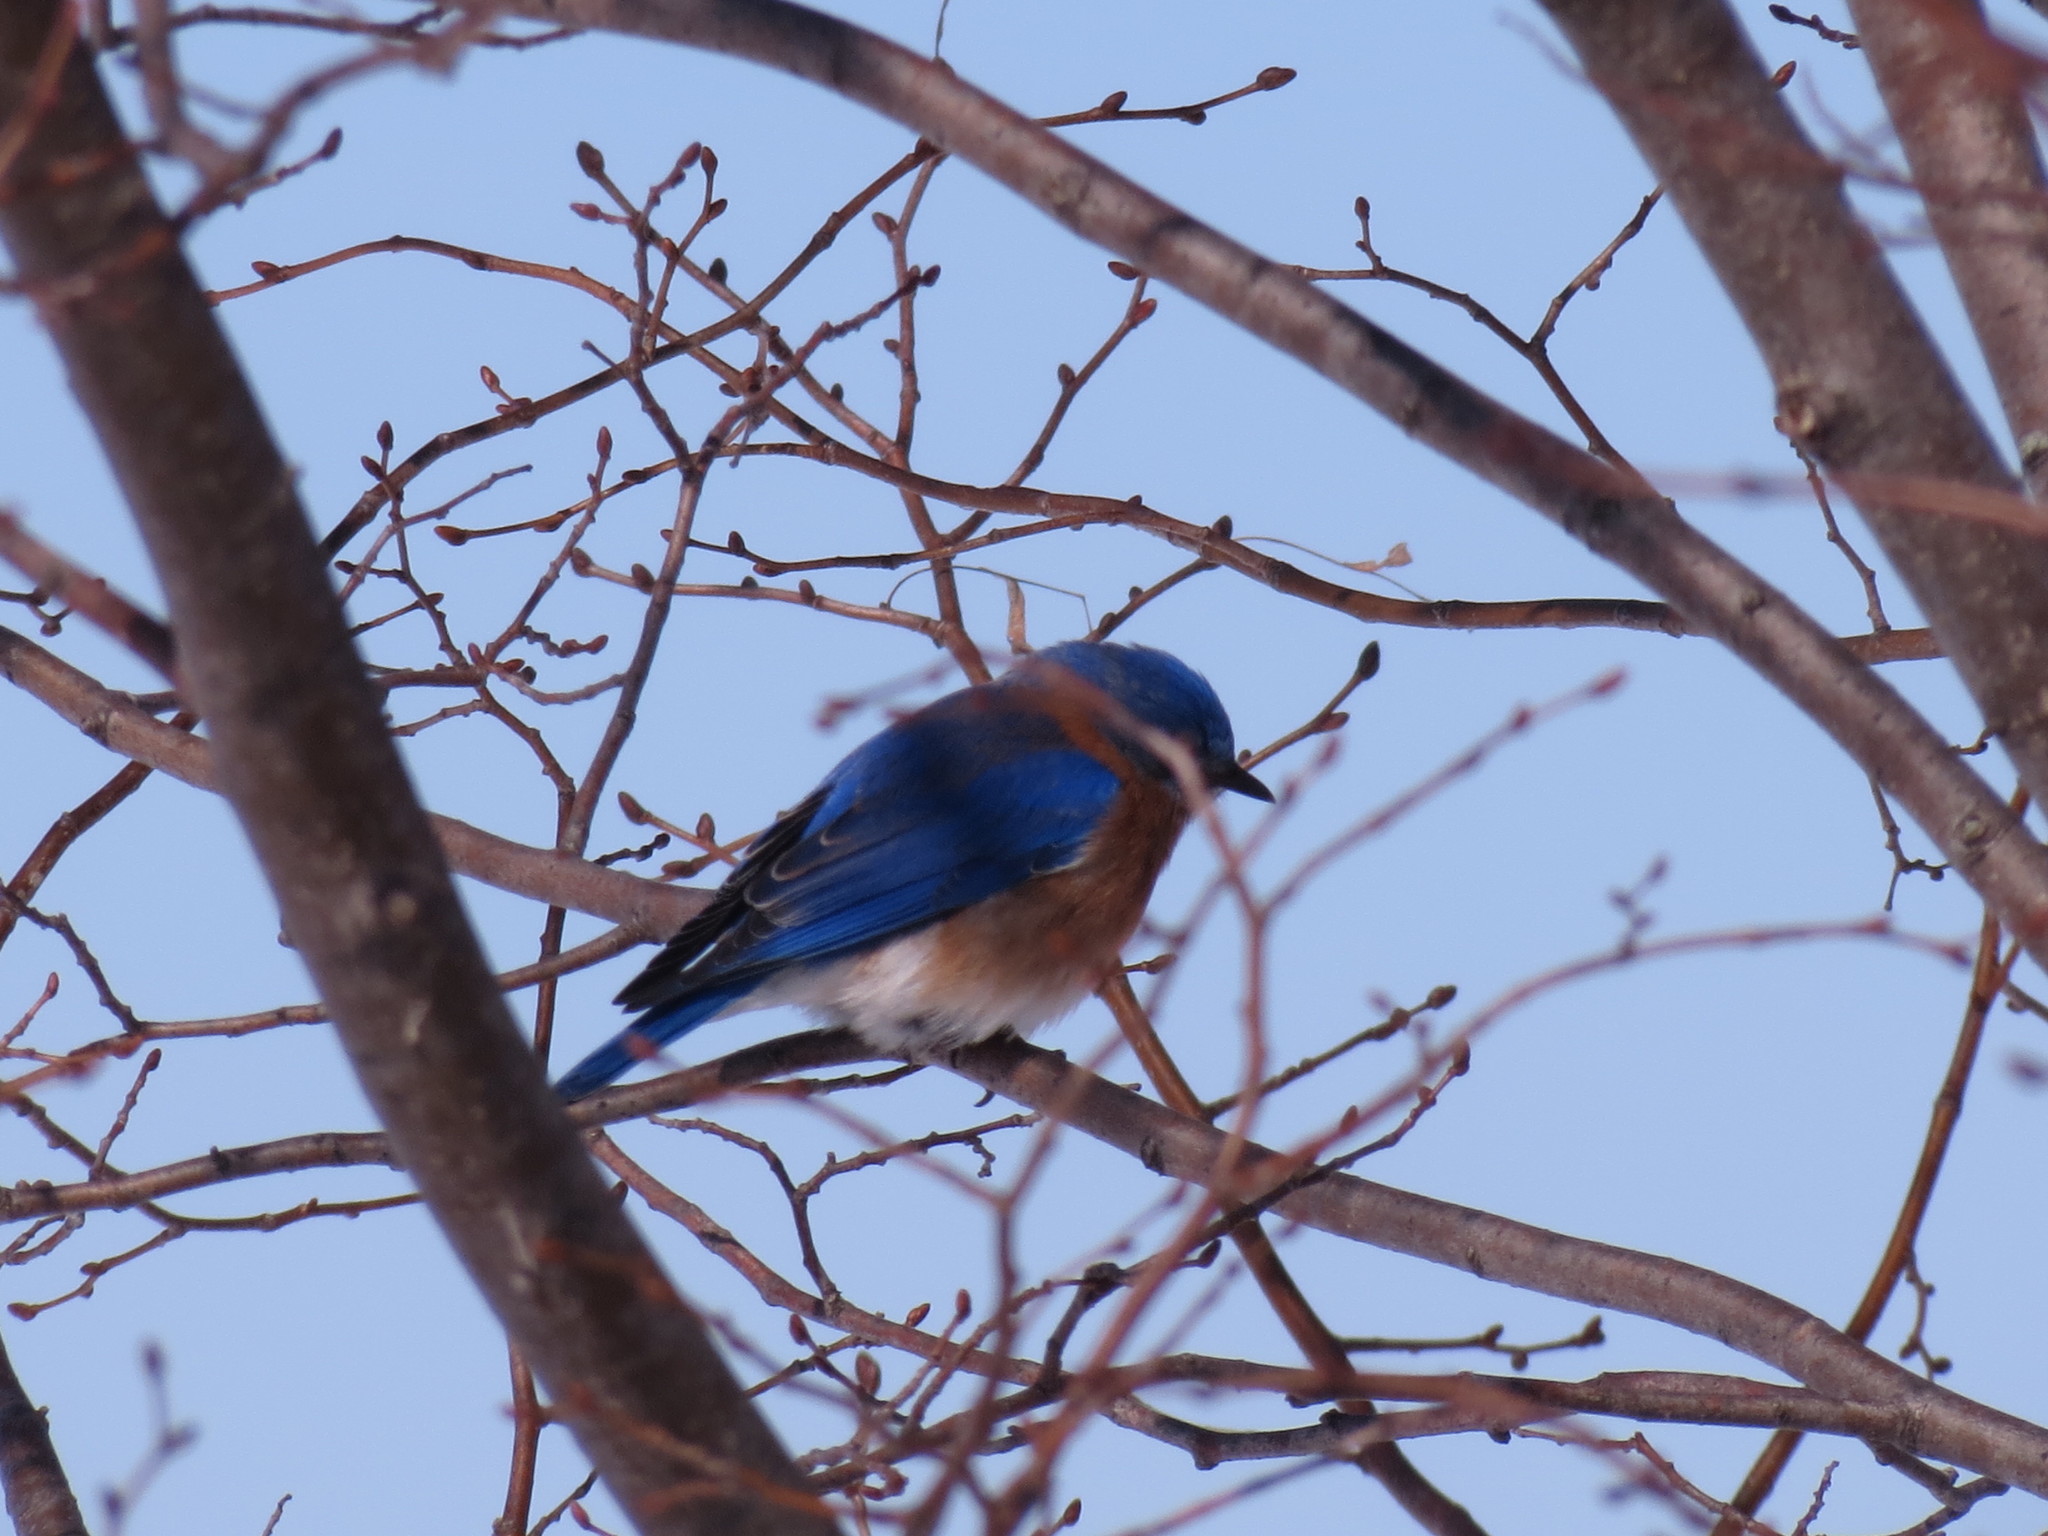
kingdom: Animalia
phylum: Chordata
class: Aves
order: Passeriformes
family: Turdidae
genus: Sialia
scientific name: Sialia sialis
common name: Eastern bluebird
